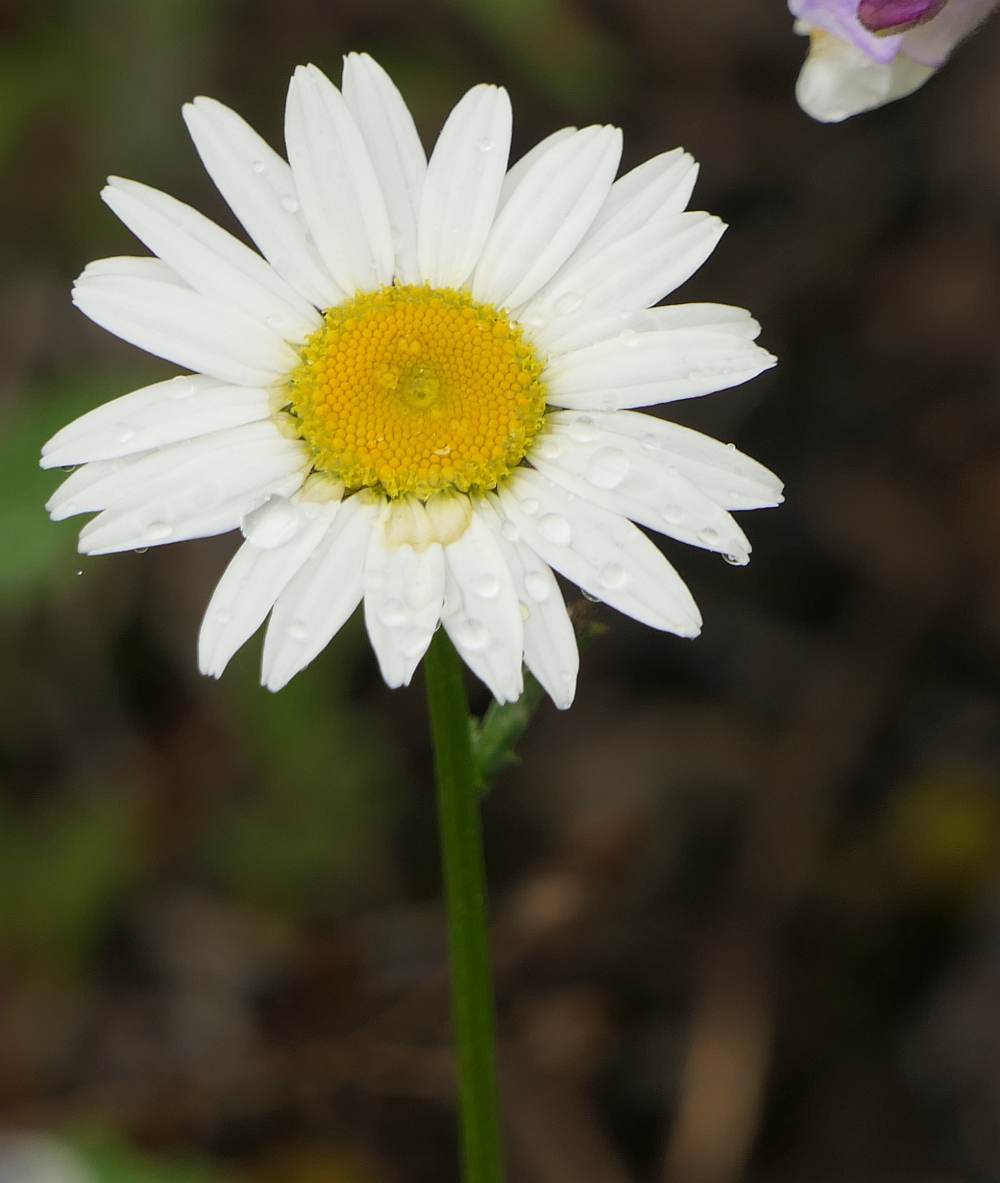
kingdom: Plantae
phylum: Tracheophyta
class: Magnoliopsida
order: Asterales
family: Asteraceae
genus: Leucanthemum
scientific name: Leucanthemum vulgare
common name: Oxeye daisy
